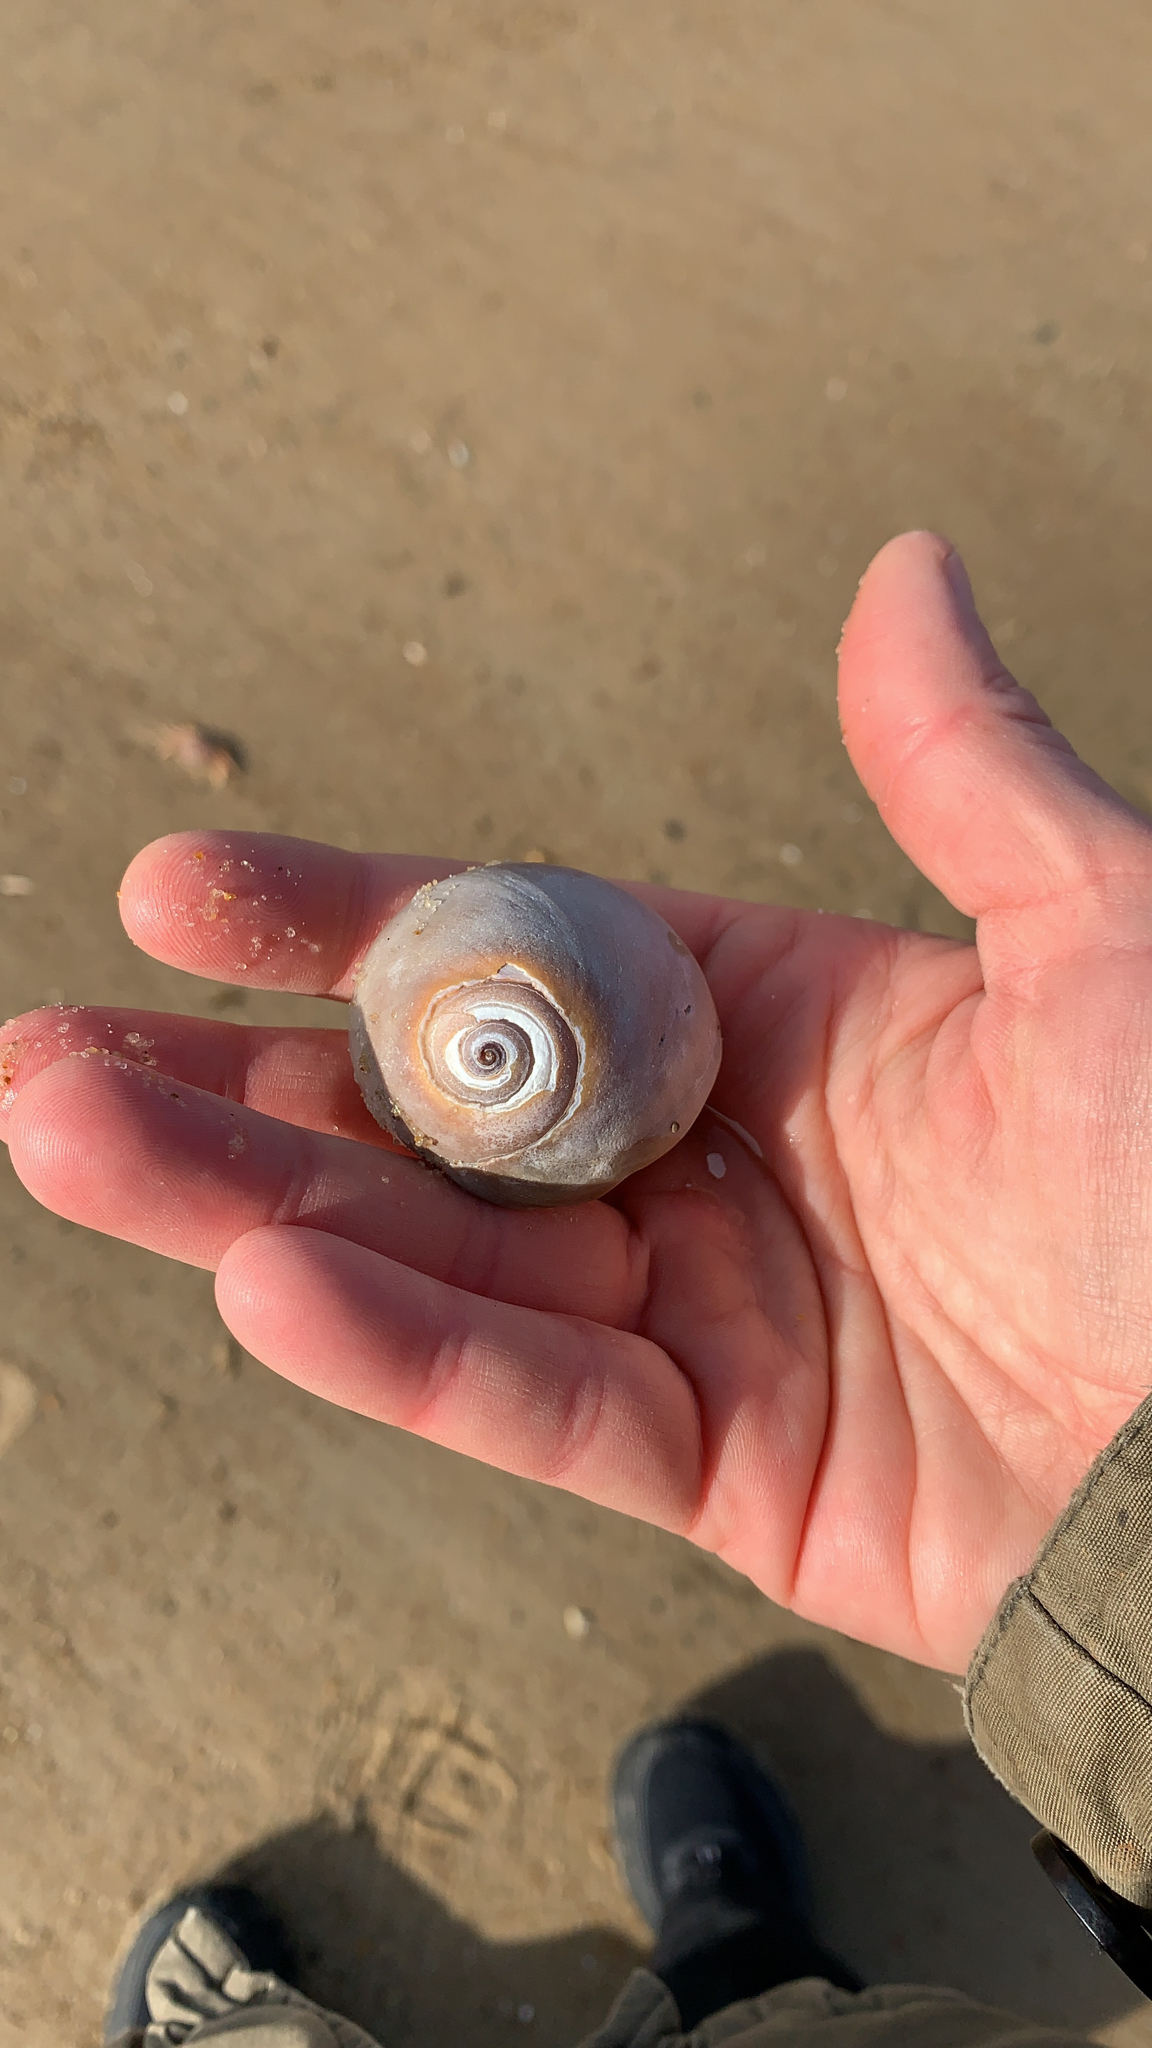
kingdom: Animalia
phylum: Mollusca
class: Gastropoda
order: Littorinimorpha
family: Naticidae
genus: Neverita
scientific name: Neverita duplicata
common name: Lobed moonsnail
